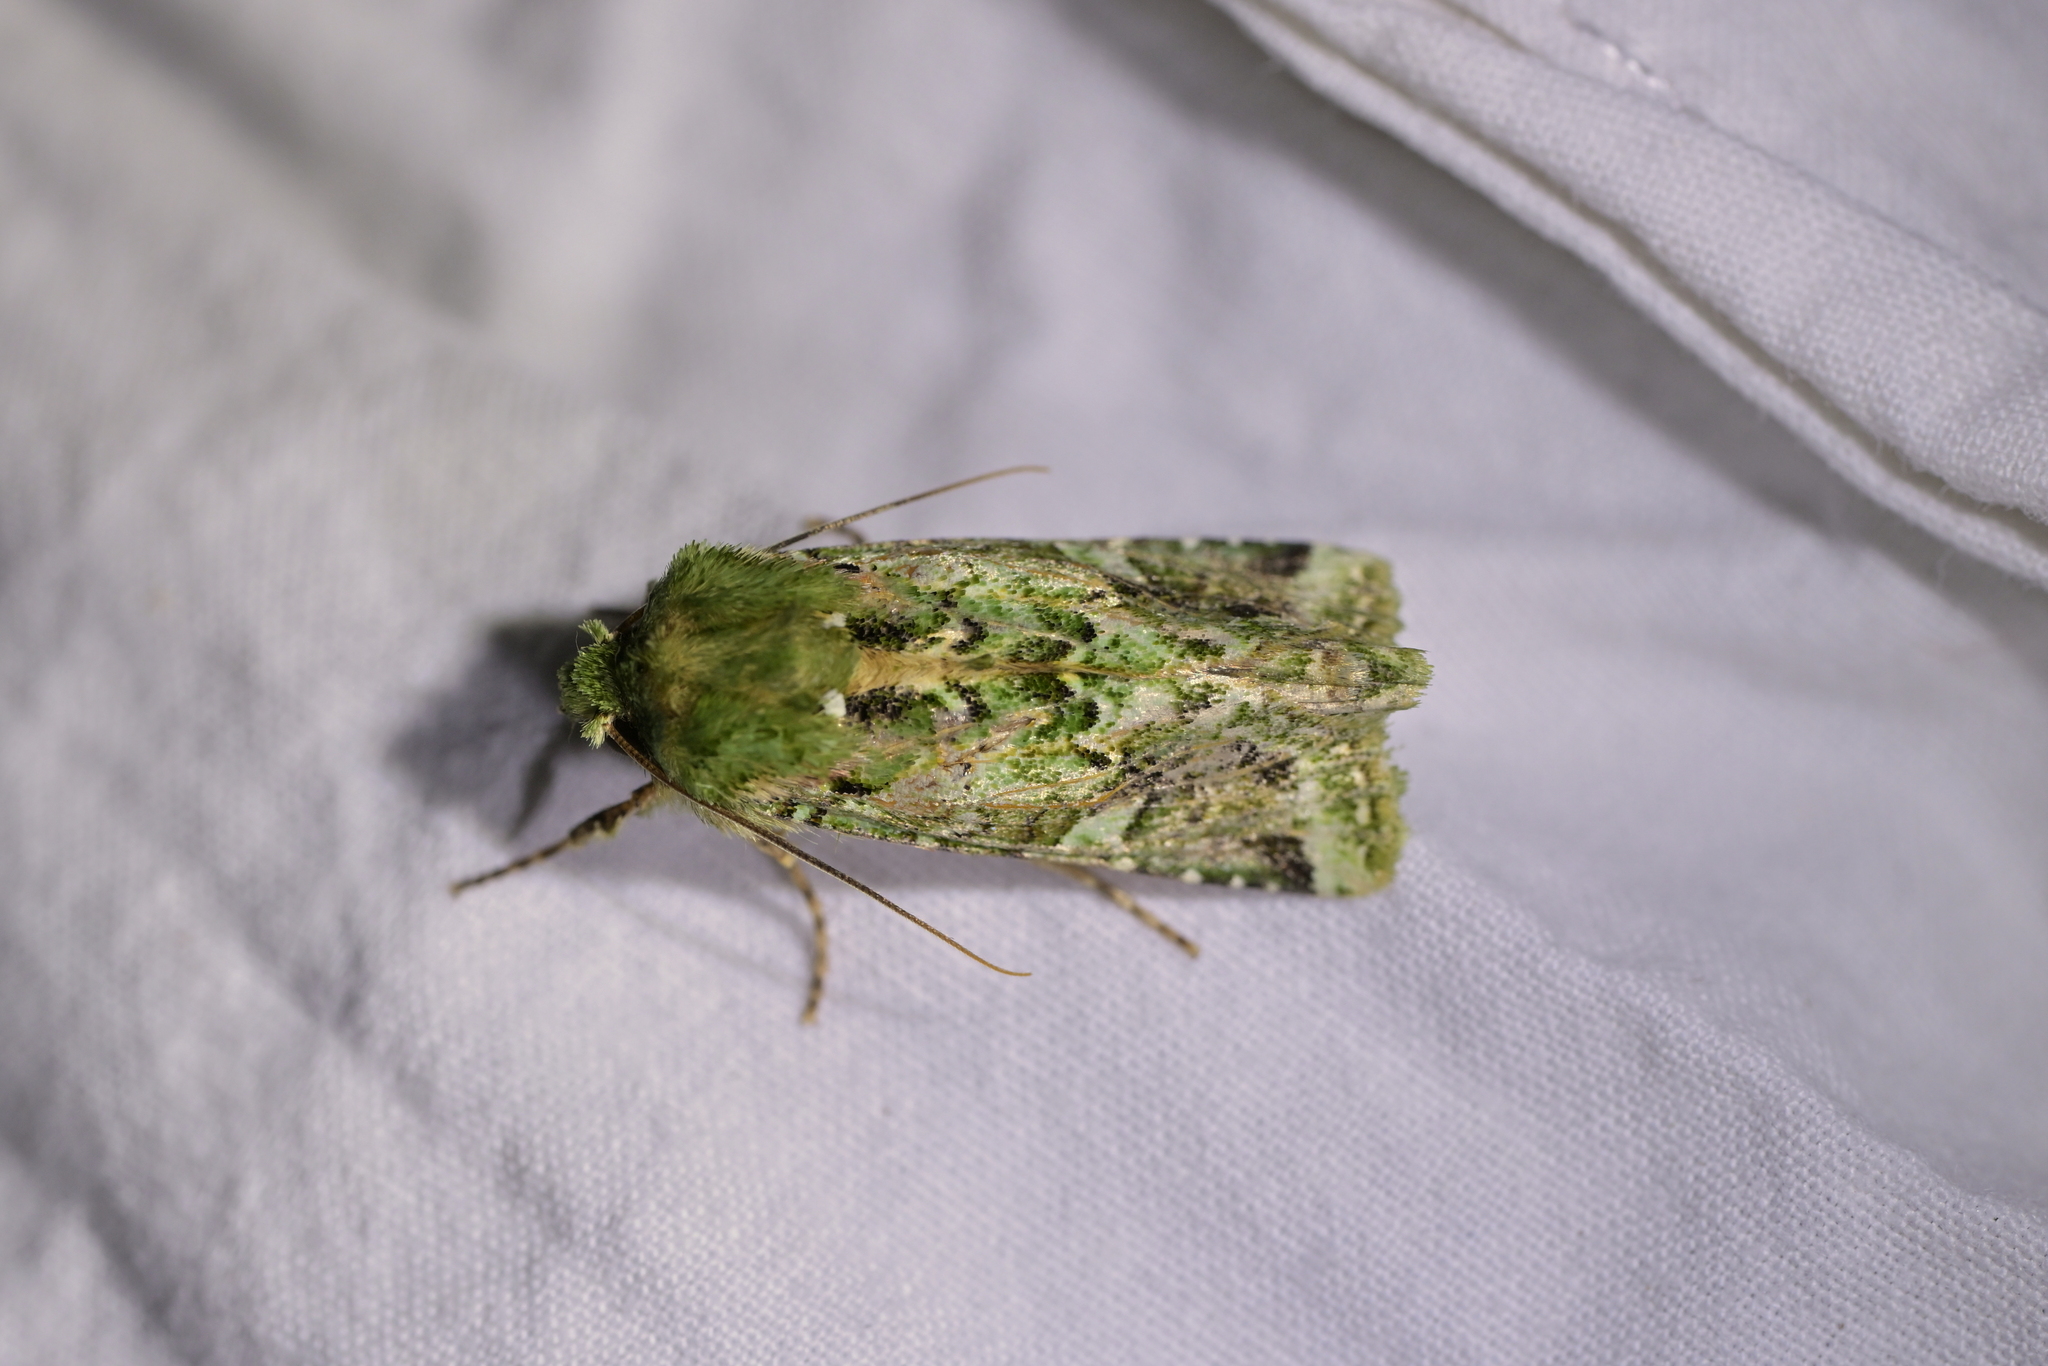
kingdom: Animalia
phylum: Arthropoda
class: Insecta
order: Lepidoptera
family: Noctuidae
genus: Feredayia
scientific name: Feredayia grammosa
